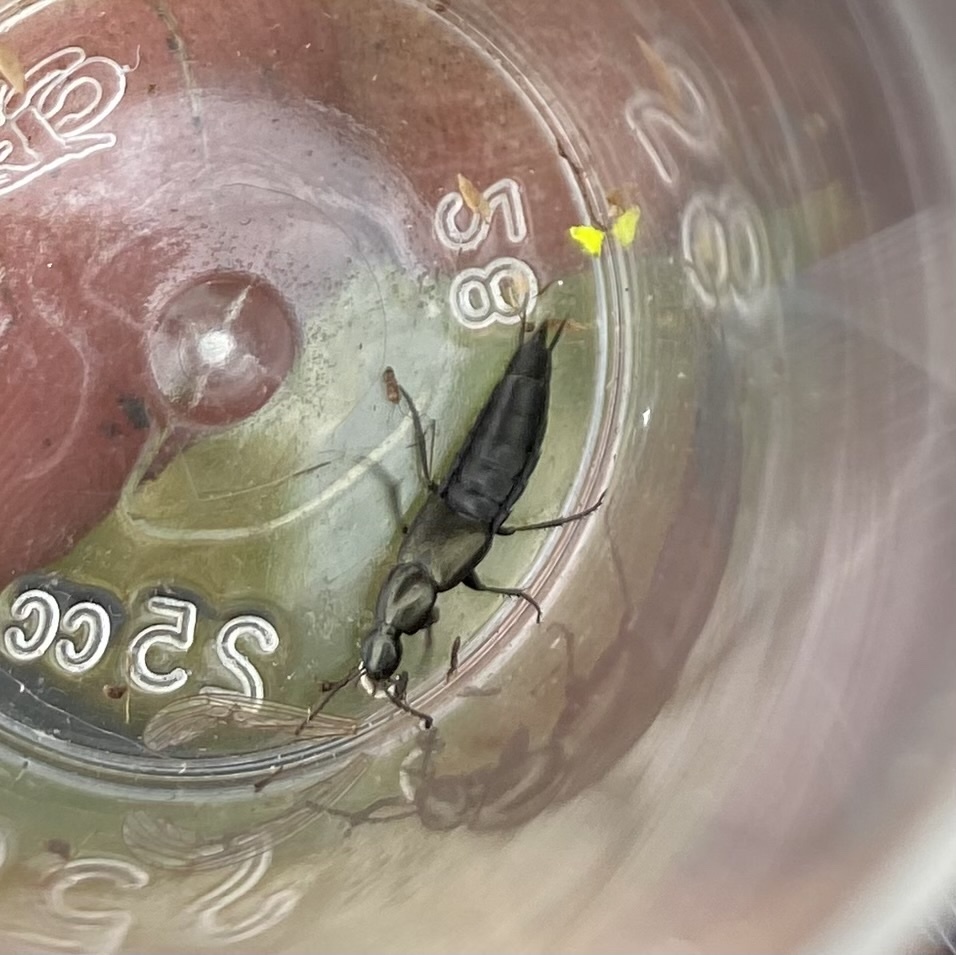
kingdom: Animalia
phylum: Arthropoda
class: Insecta
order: Coleoptera
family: Staphylinidae
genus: Philonthus
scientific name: Philonthus cognatus
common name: Staph beetle
